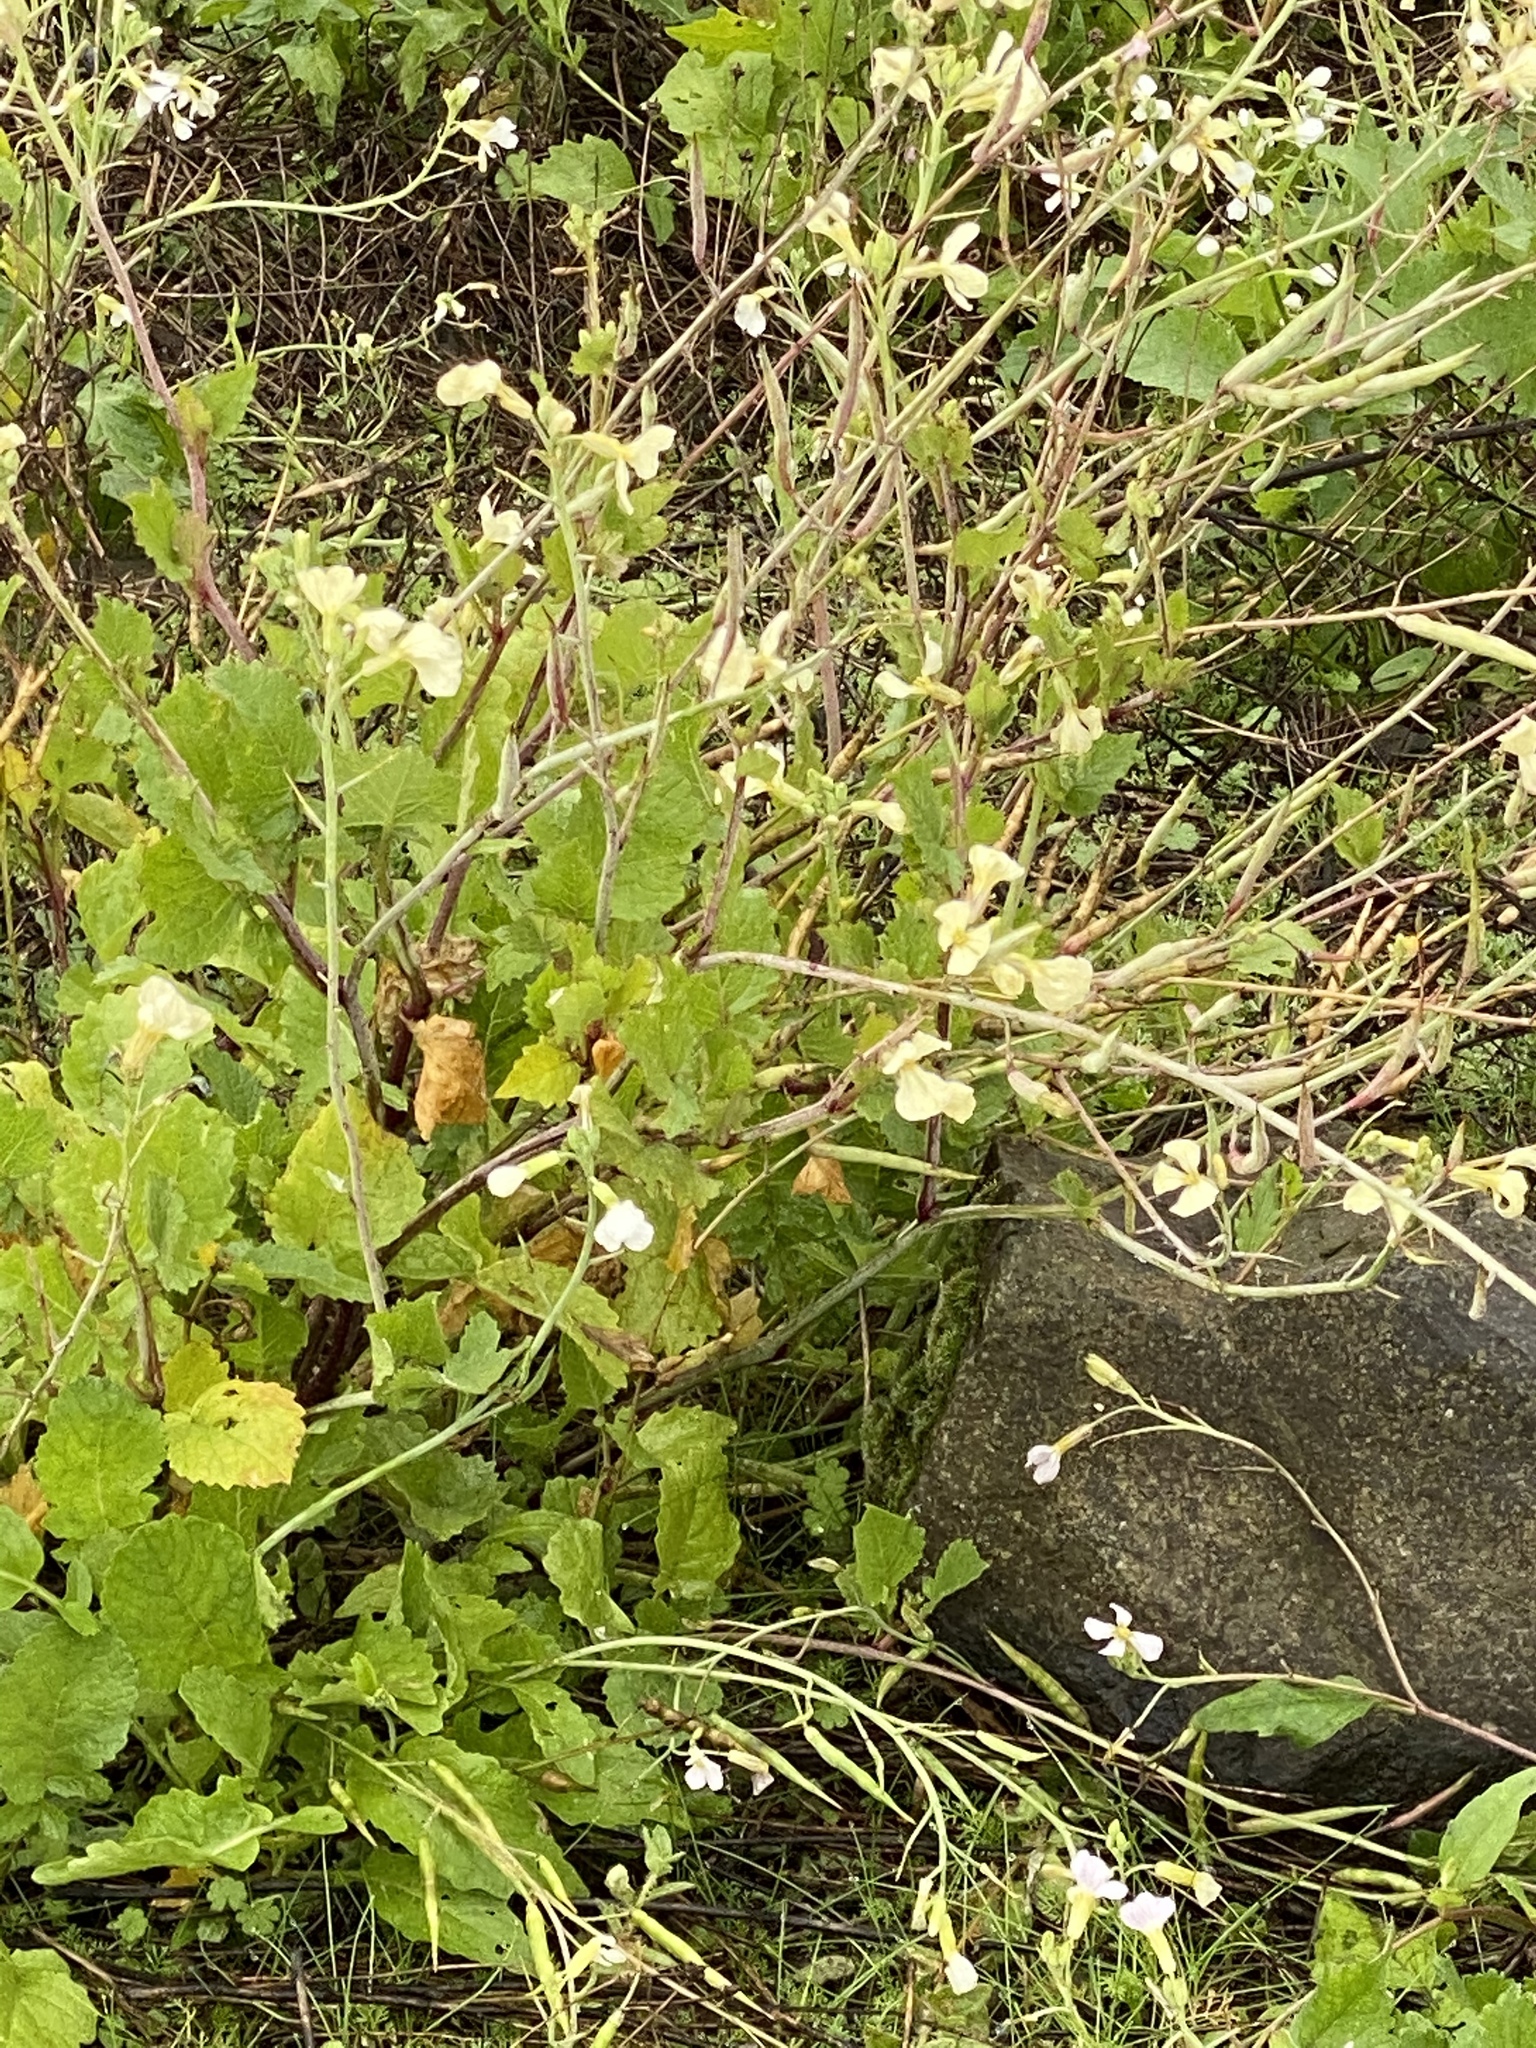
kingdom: Plantae
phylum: Tracheophyta
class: Magnoliopsida
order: Brassicales
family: Brassicaceae
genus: Raphanus
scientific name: Raphanus raphanistrum
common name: Wild radish
